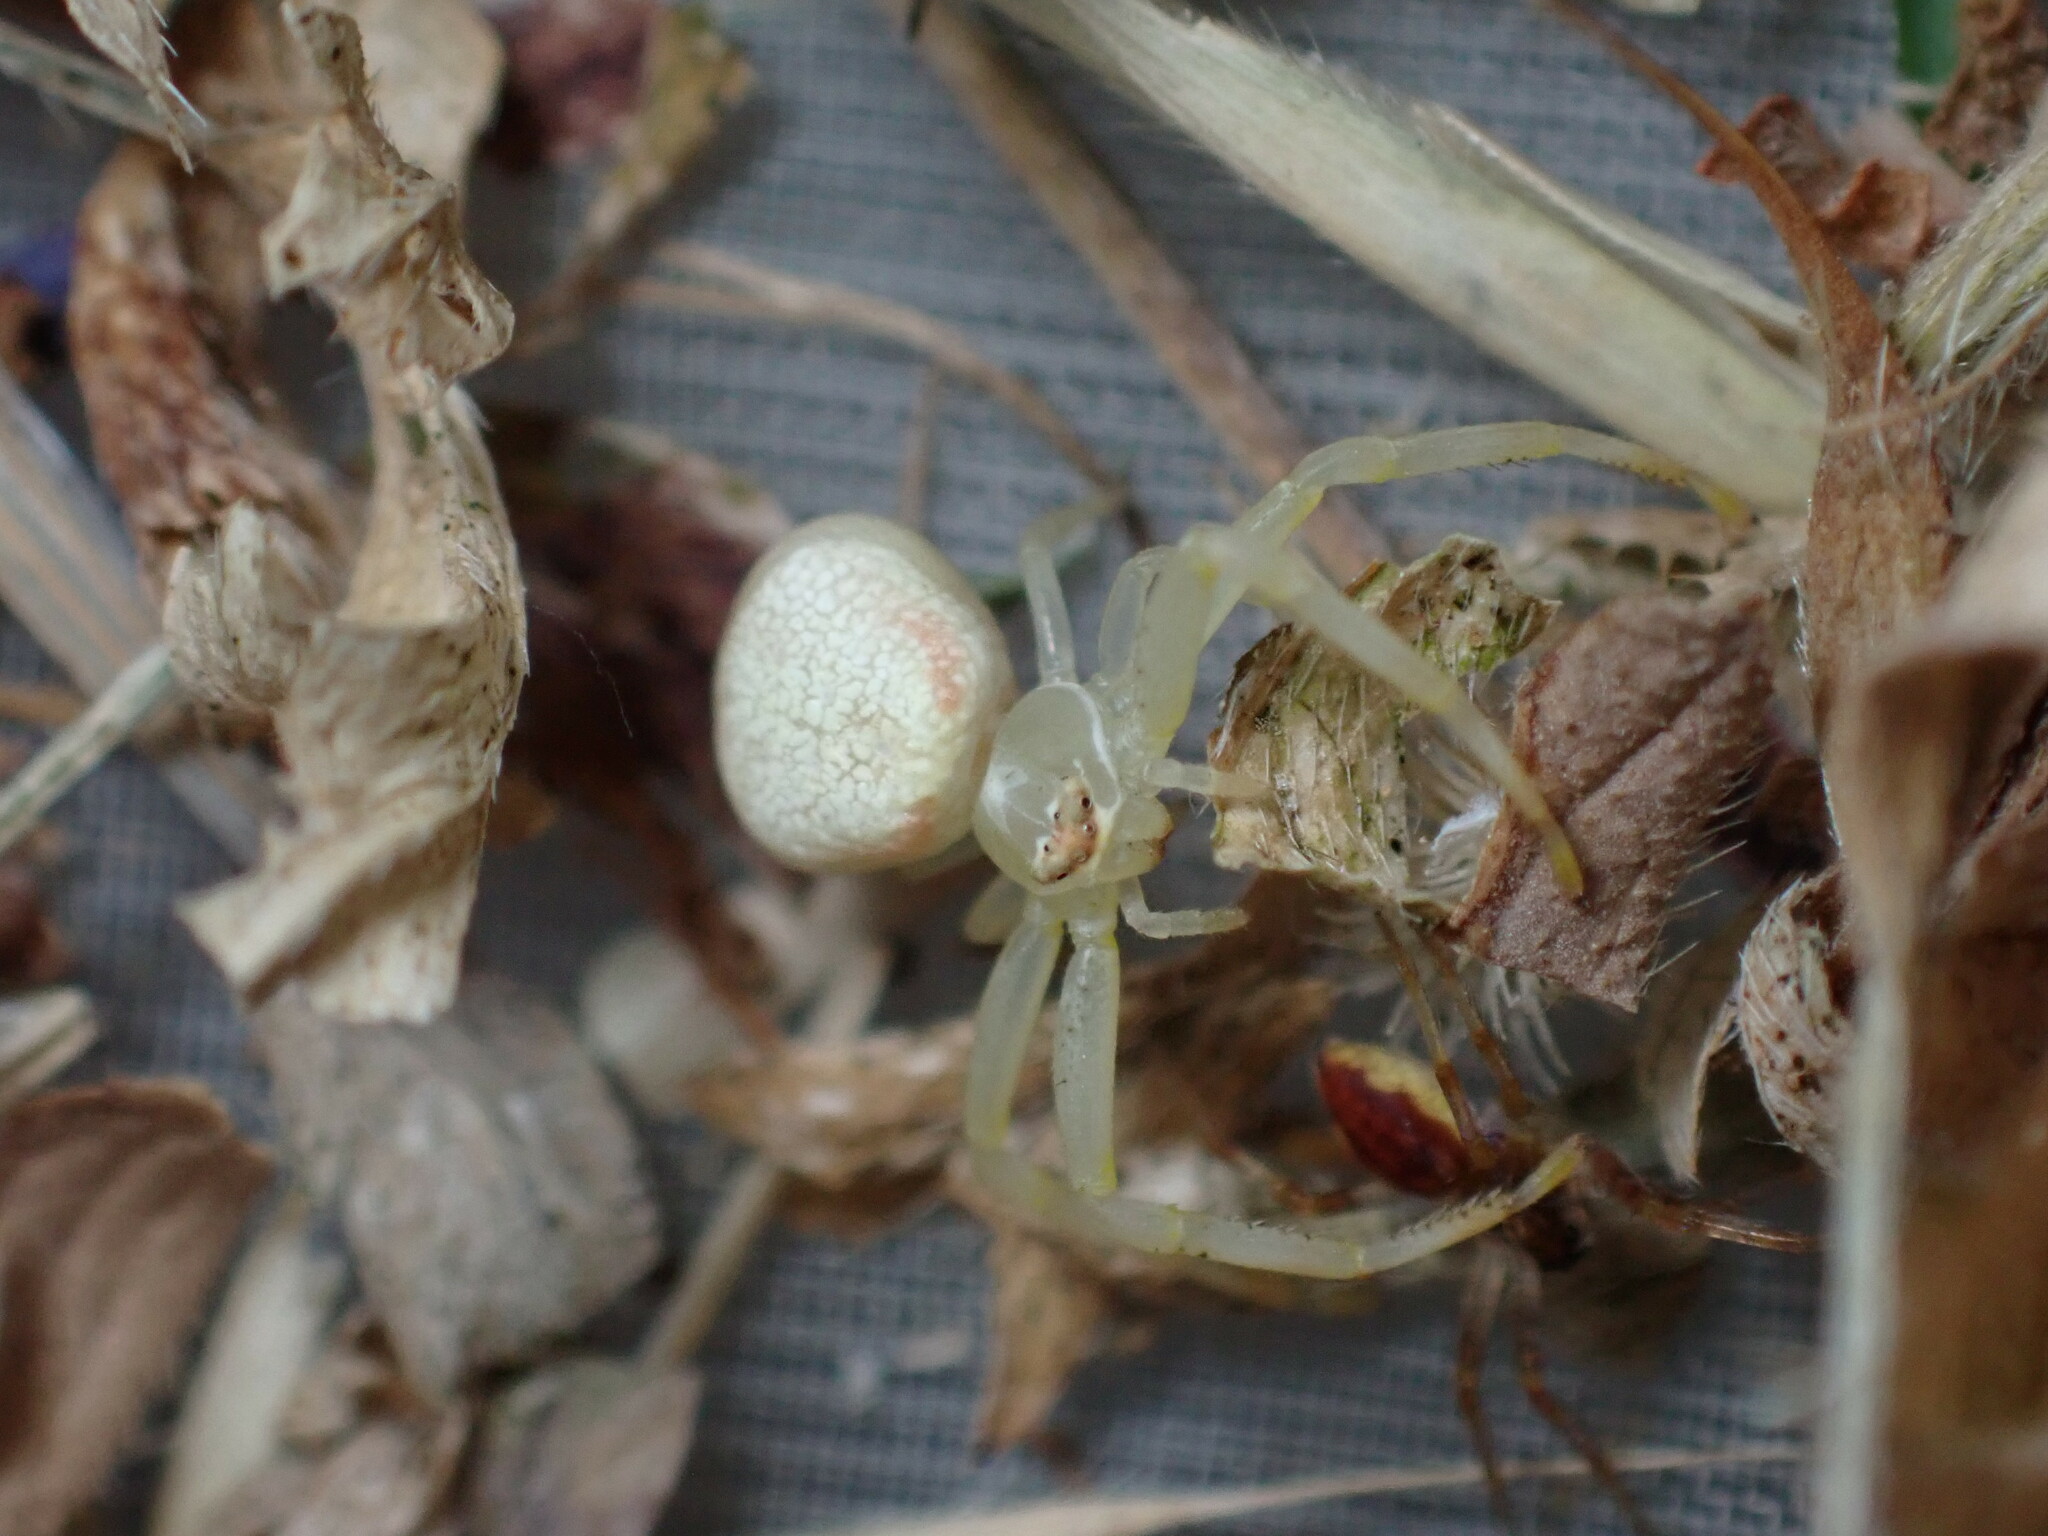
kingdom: Animalia
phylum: Arthropoda
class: Arachnida
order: Araneae
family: Thomisidae
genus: Misumena
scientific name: Misumena vatia
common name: Goldenrod crab spider
